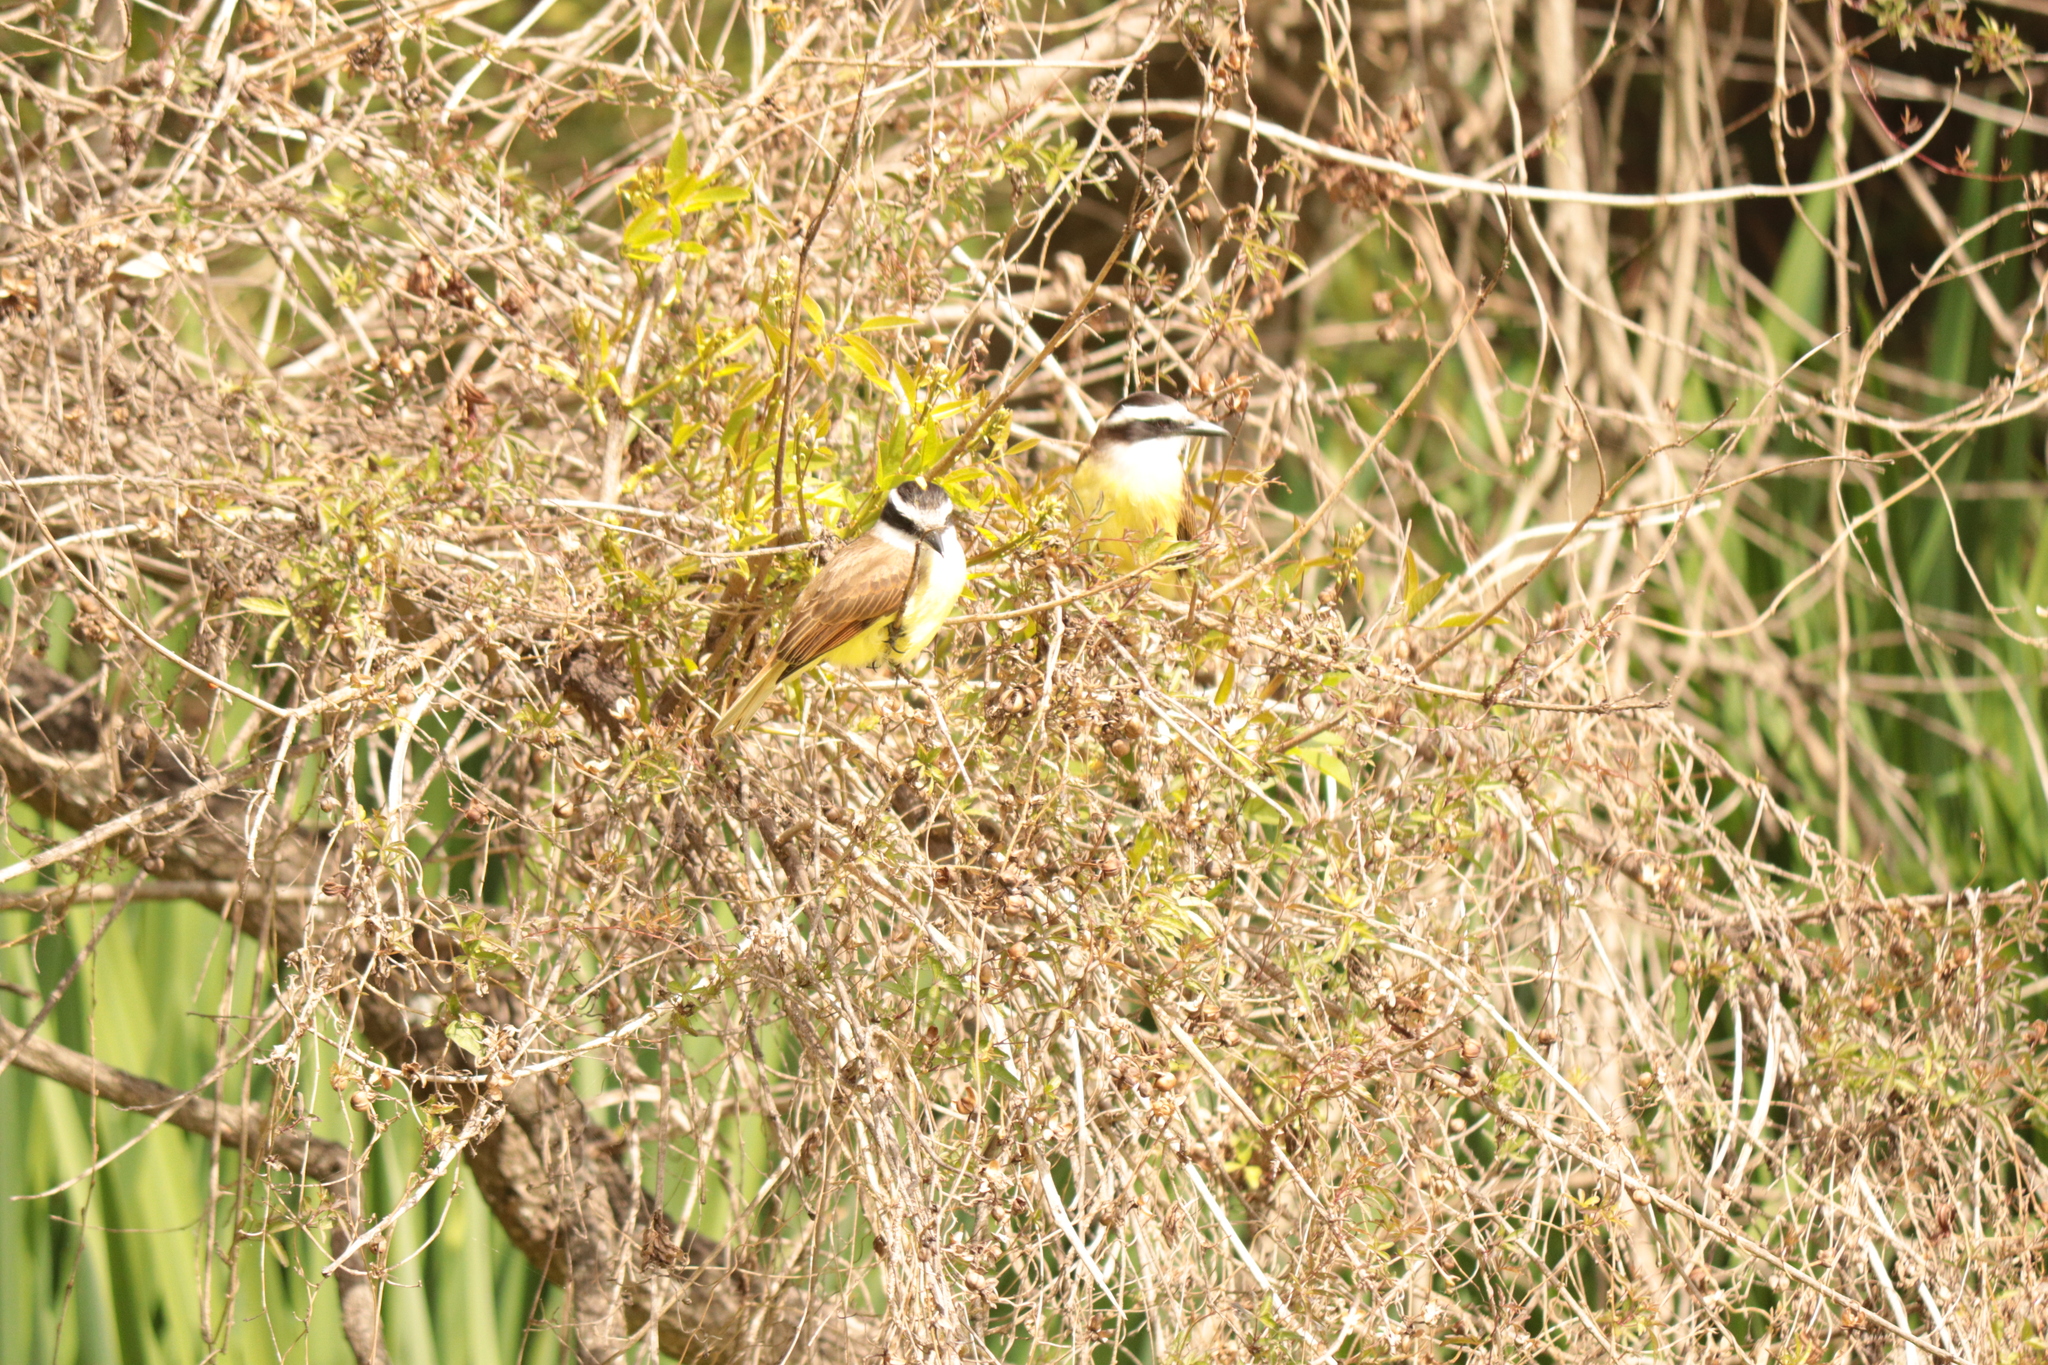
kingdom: Animalia
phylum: Chordata
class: Aves
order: Passeriformes
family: Tyrannidae
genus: Pitangus
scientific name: Pitangus sulphuratus
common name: Great kiskadee
